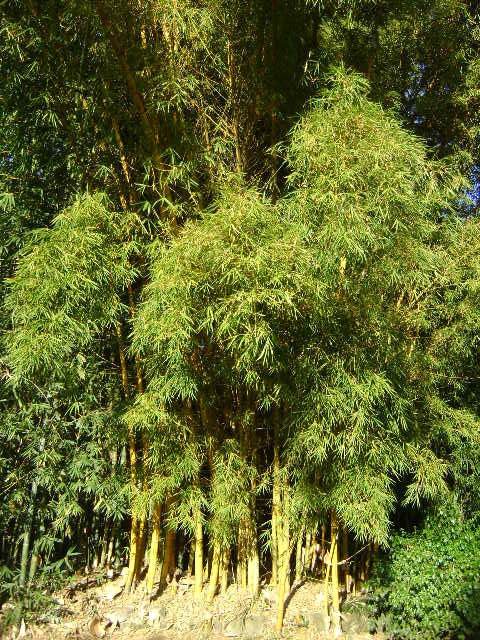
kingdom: Plantae
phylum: Tracheophyta
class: Liliopsida
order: Poales
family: Poaceae
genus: Bambusa
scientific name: Bambusa vulgaris
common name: Common bamboo
